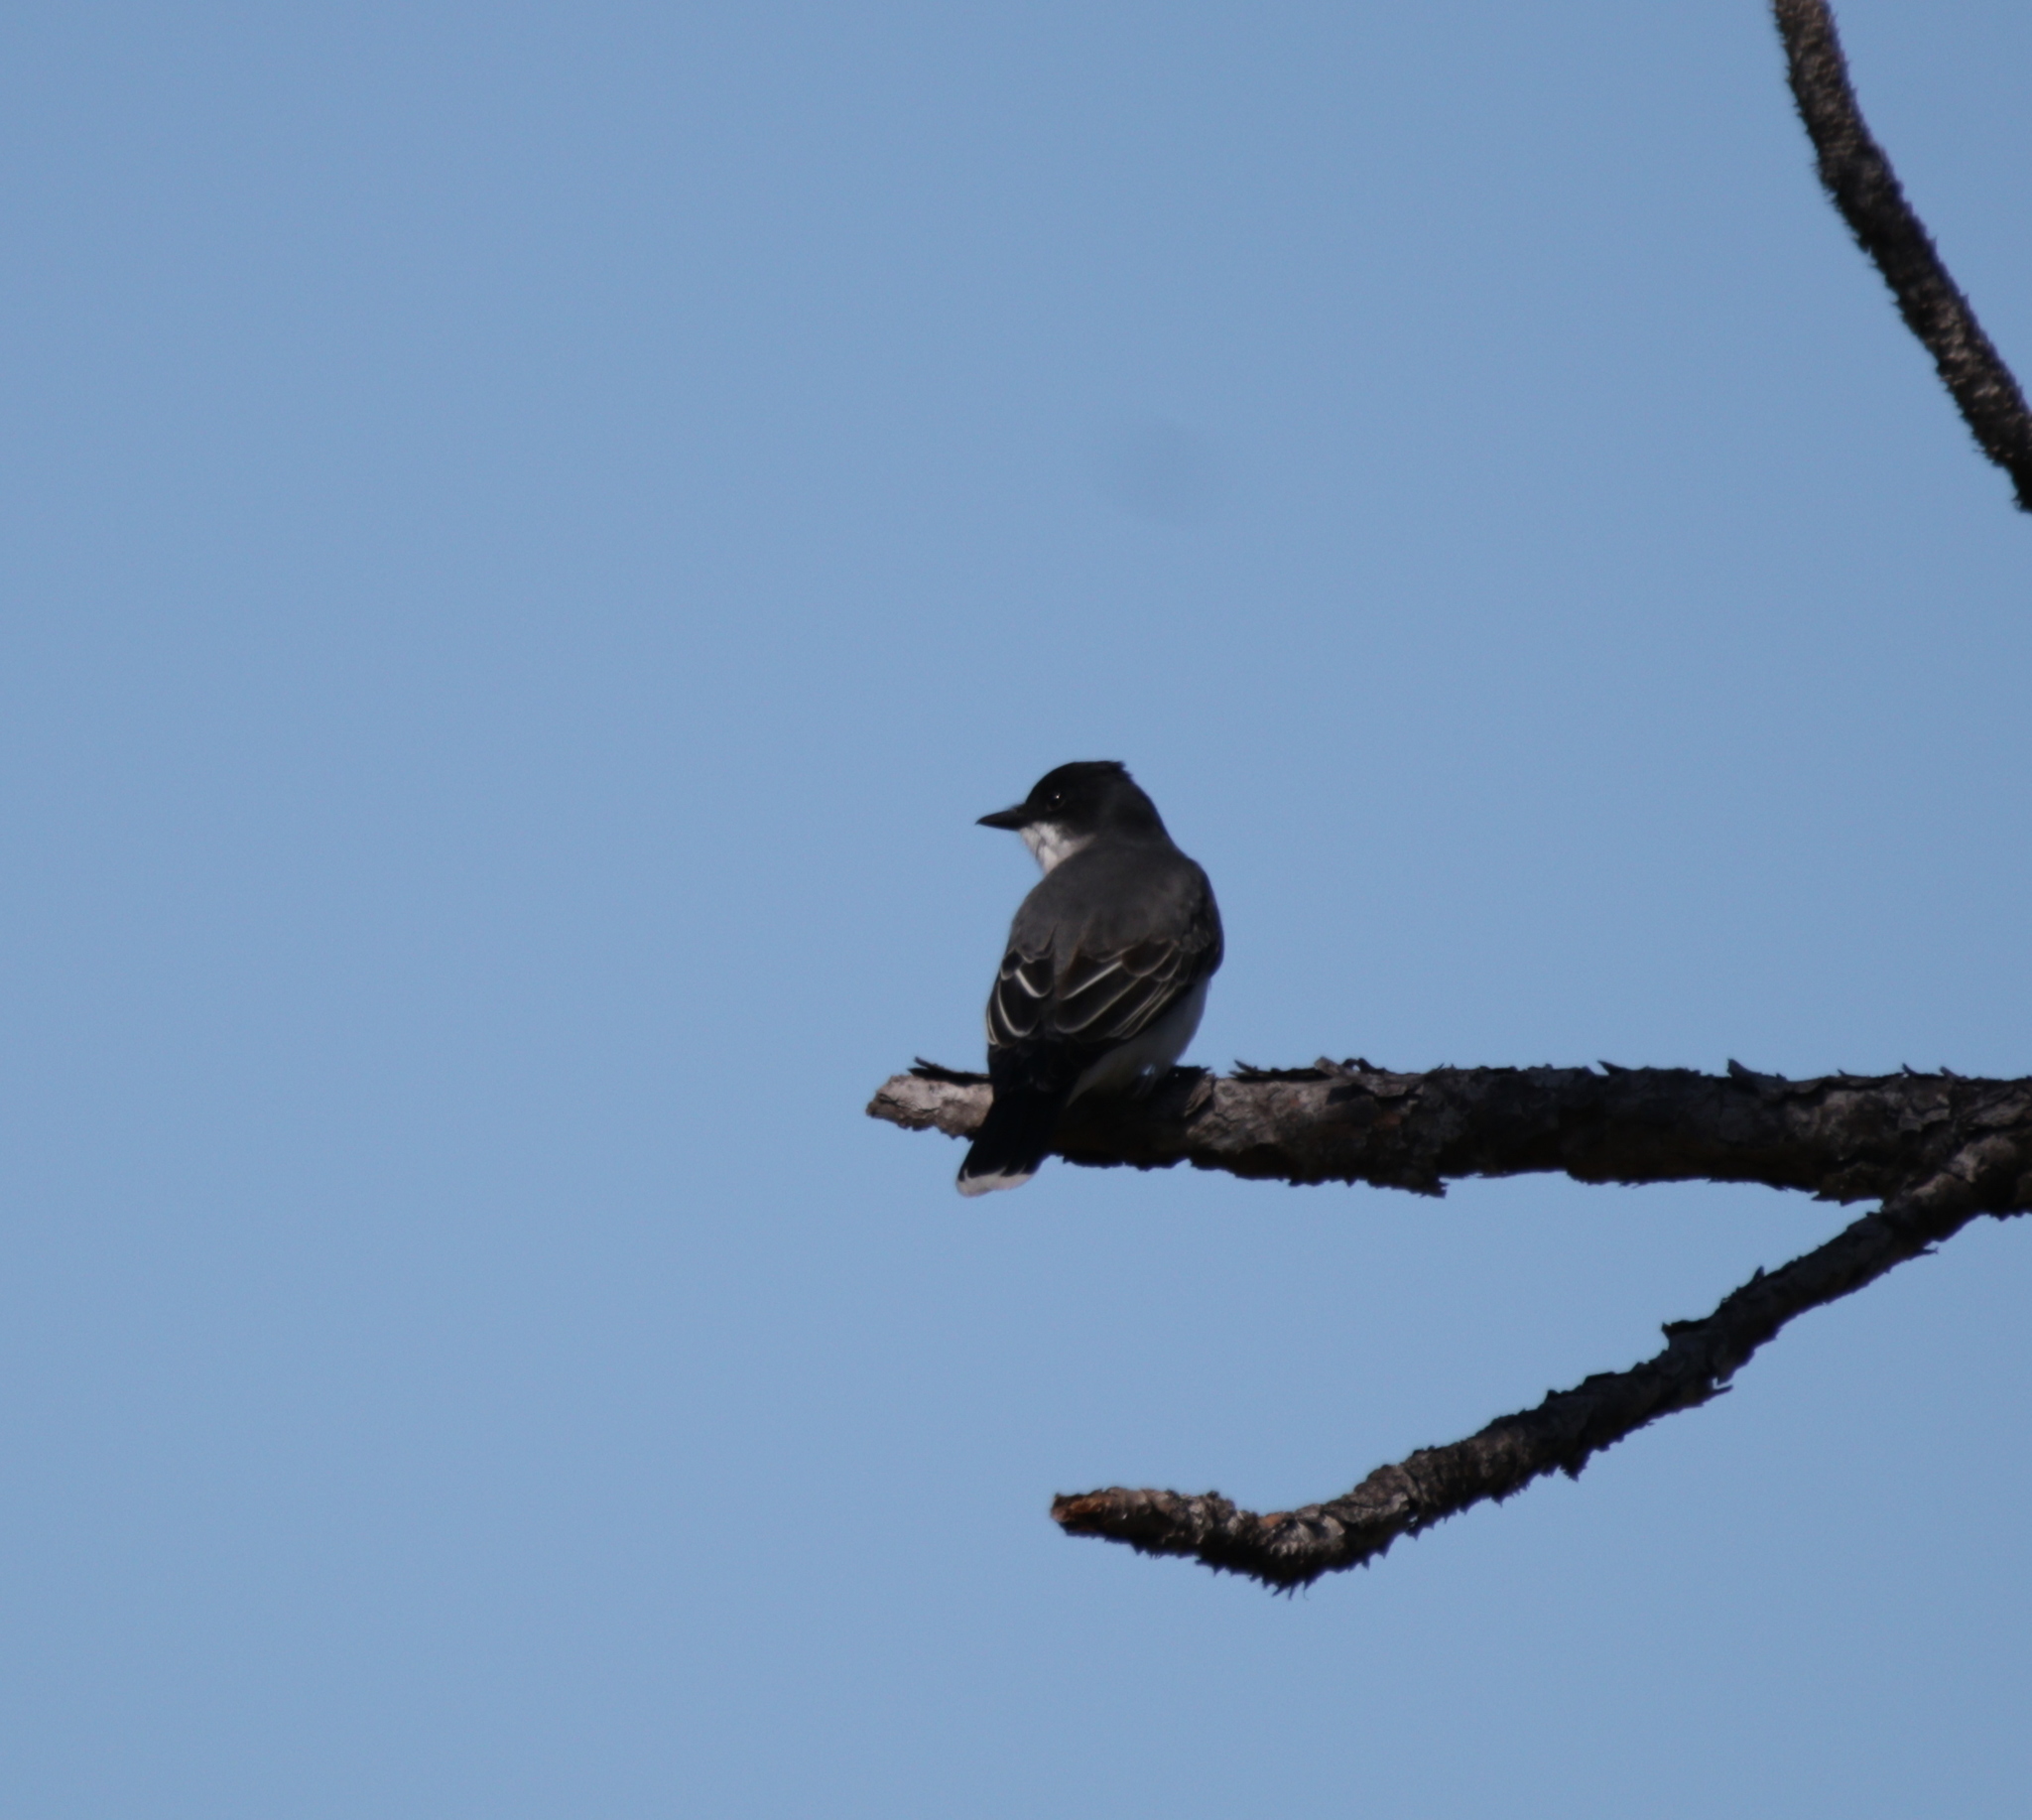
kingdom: Animalia
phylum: Chordata
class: Aves
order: Passeriformes
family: Tyrannidae
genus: Tyrannus
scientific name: Tyrannus tyrannus
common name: Eastern kingbird
